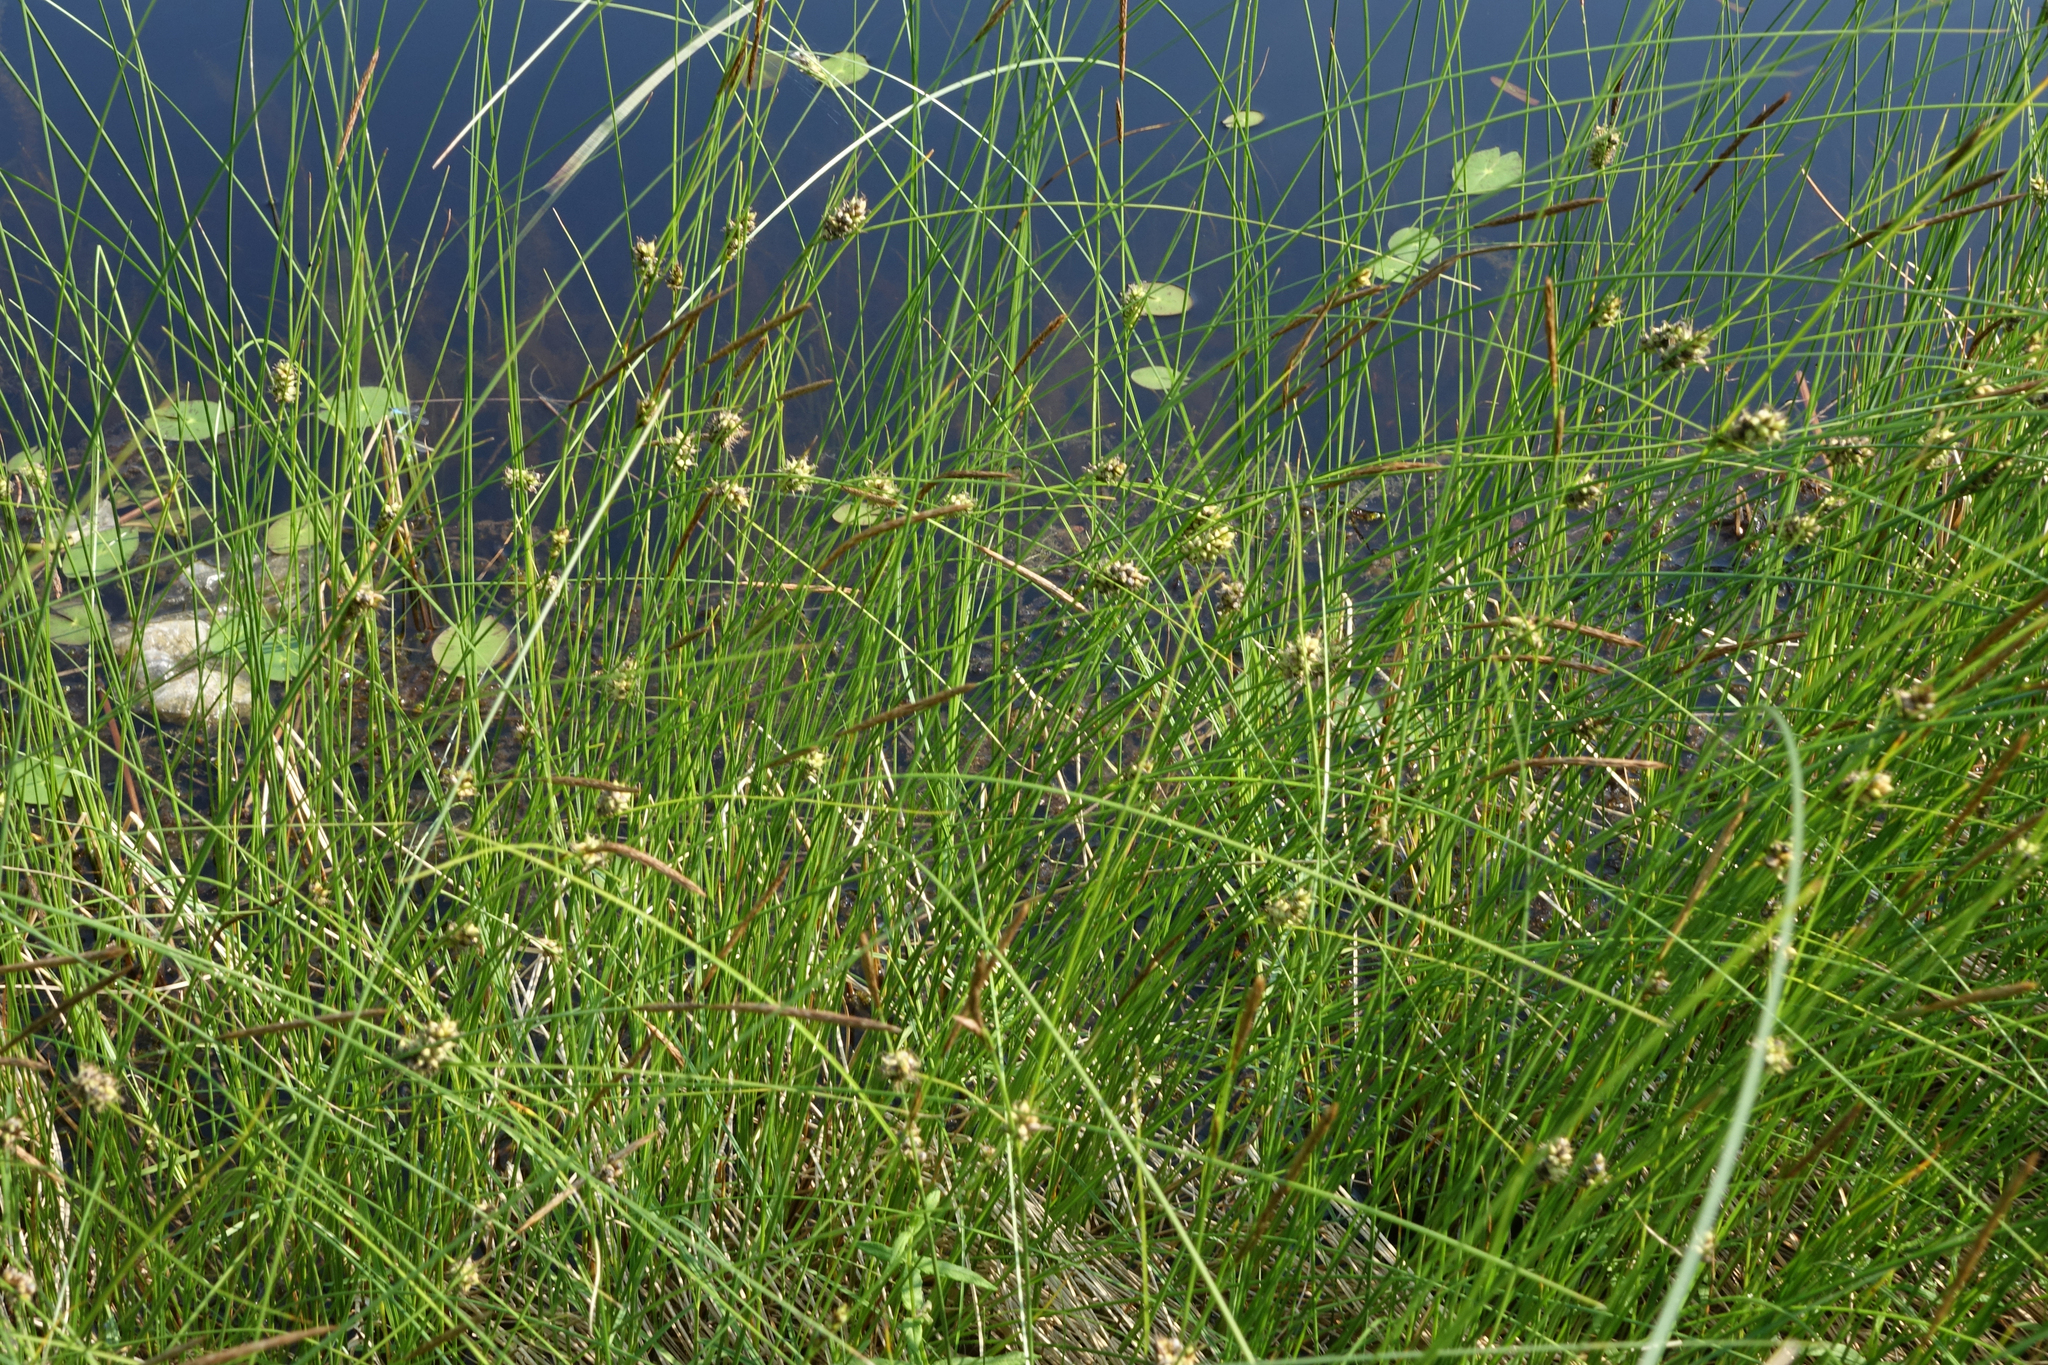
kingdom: Plantae
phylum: Tracheophyta
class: Liliopsida
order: Poales
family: Cyperaceae
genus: Carex
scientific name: Carex lasiocarpa
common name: Slender sedge
